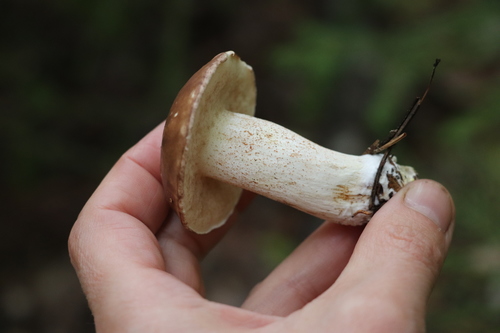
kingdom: Fungi
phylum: Basidiomycota
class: Agaricomycetes
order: Boletales
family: Suillaceae
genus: Suillus
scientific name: Suillus placidus
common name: Slippery white bolete
